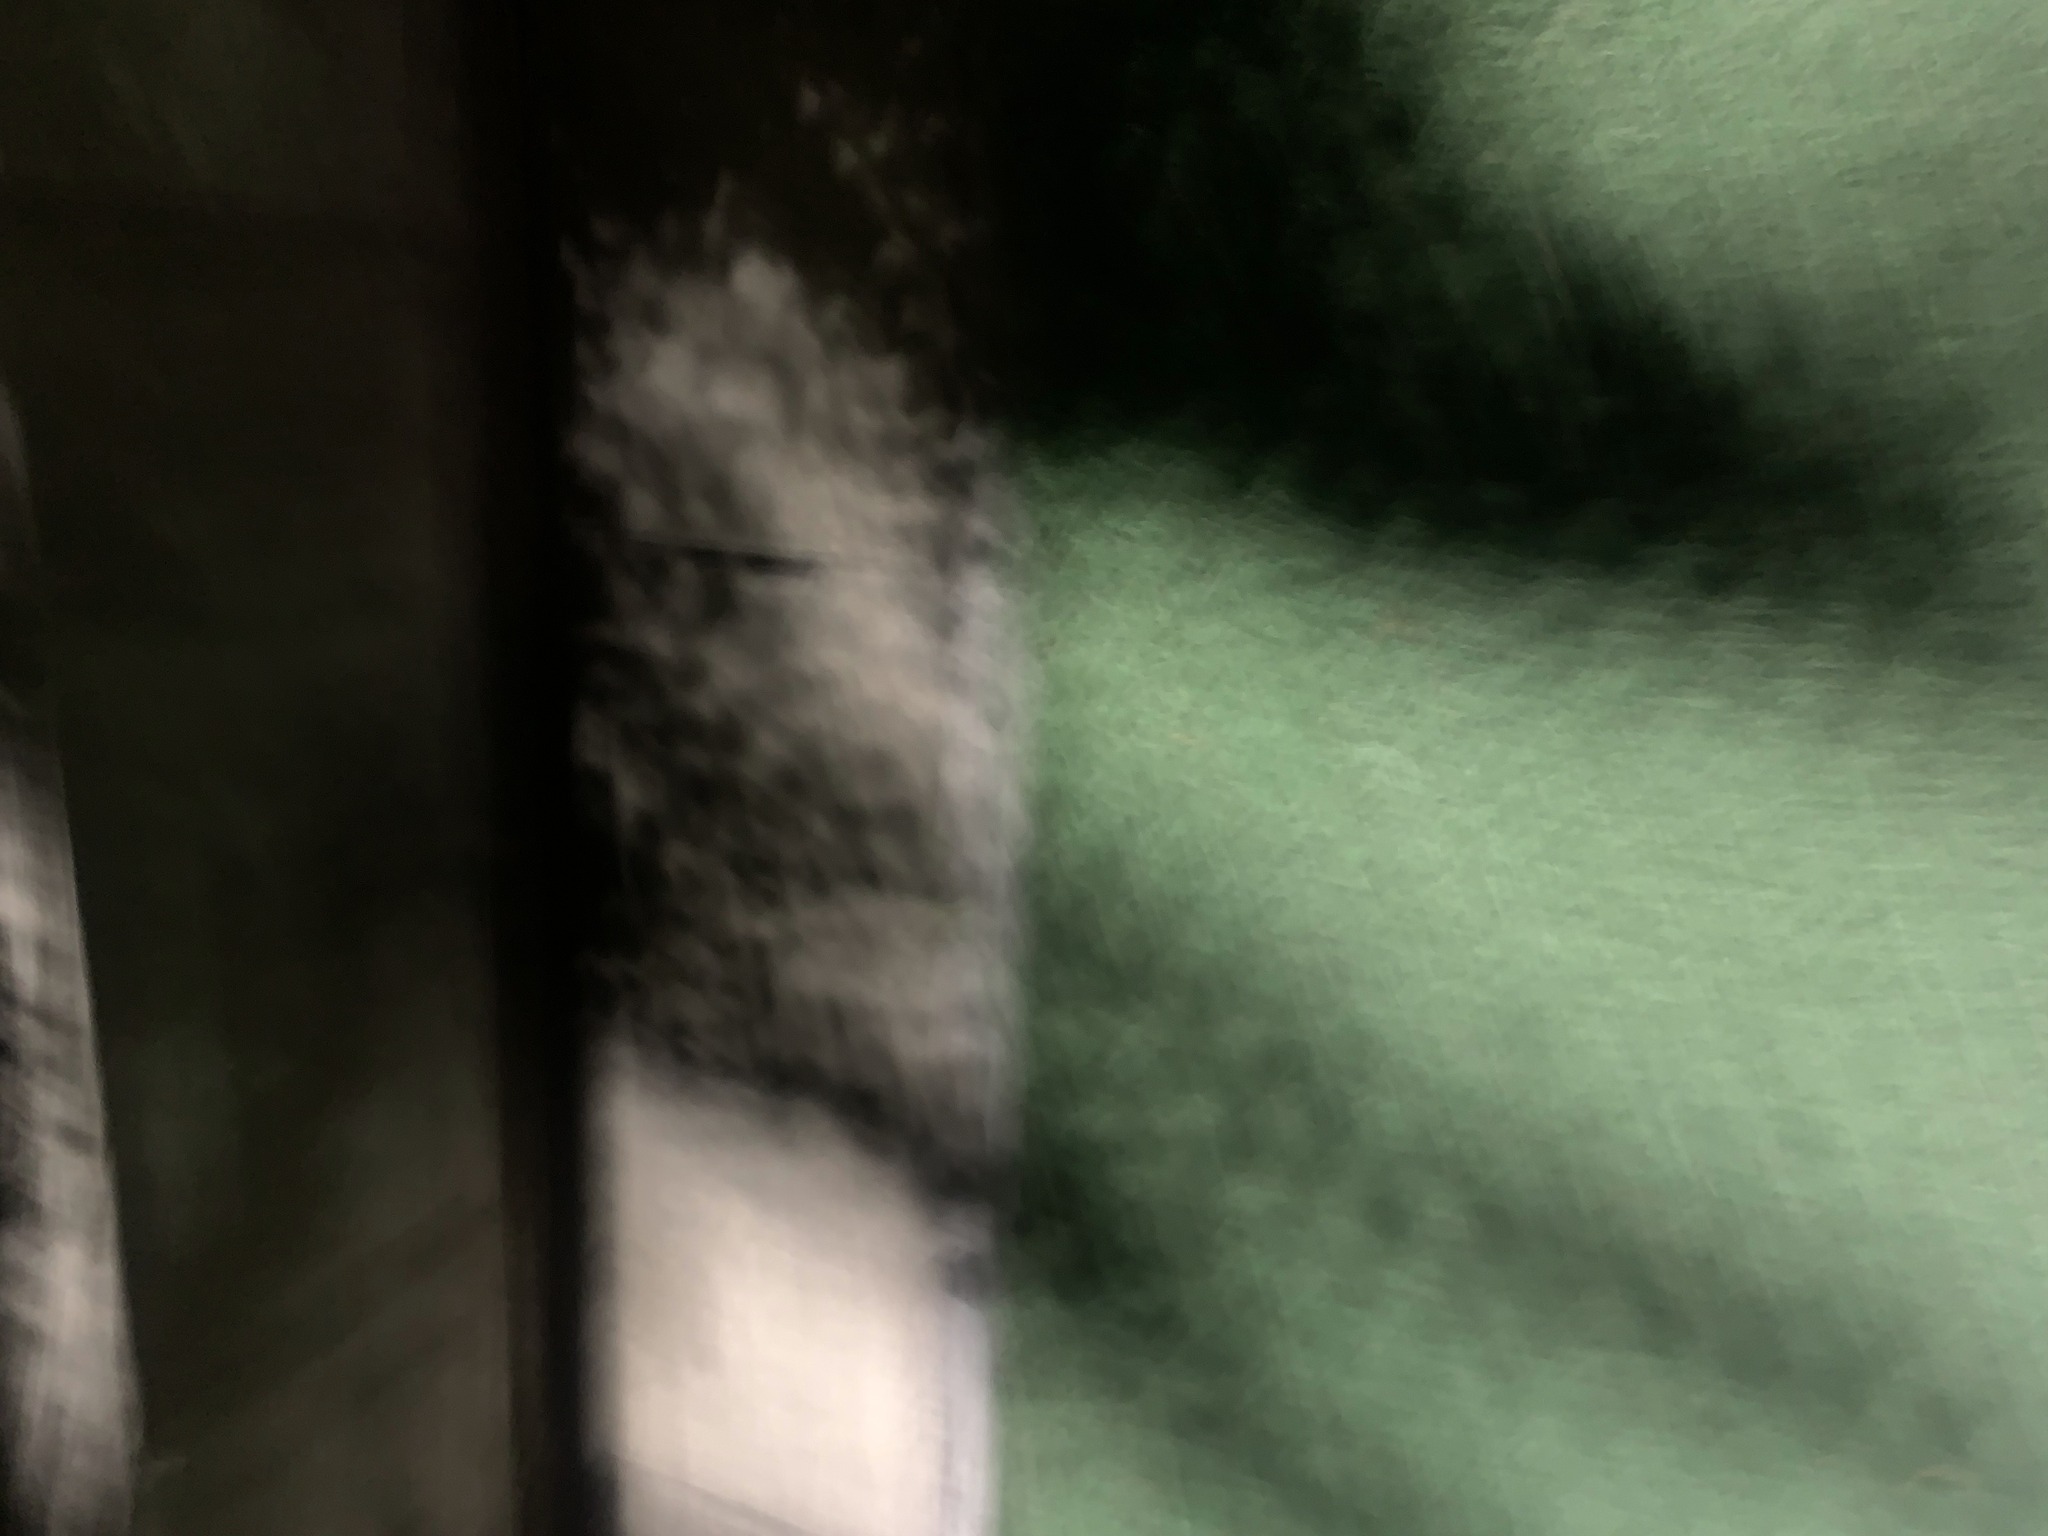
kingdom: Animalia
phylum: Arthropoda
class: Insecta
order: Orthoptera
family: Gryllotalpidae
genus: Gryllotalpa
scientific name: Gryllotalpa orientalis
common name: Grasshopper
